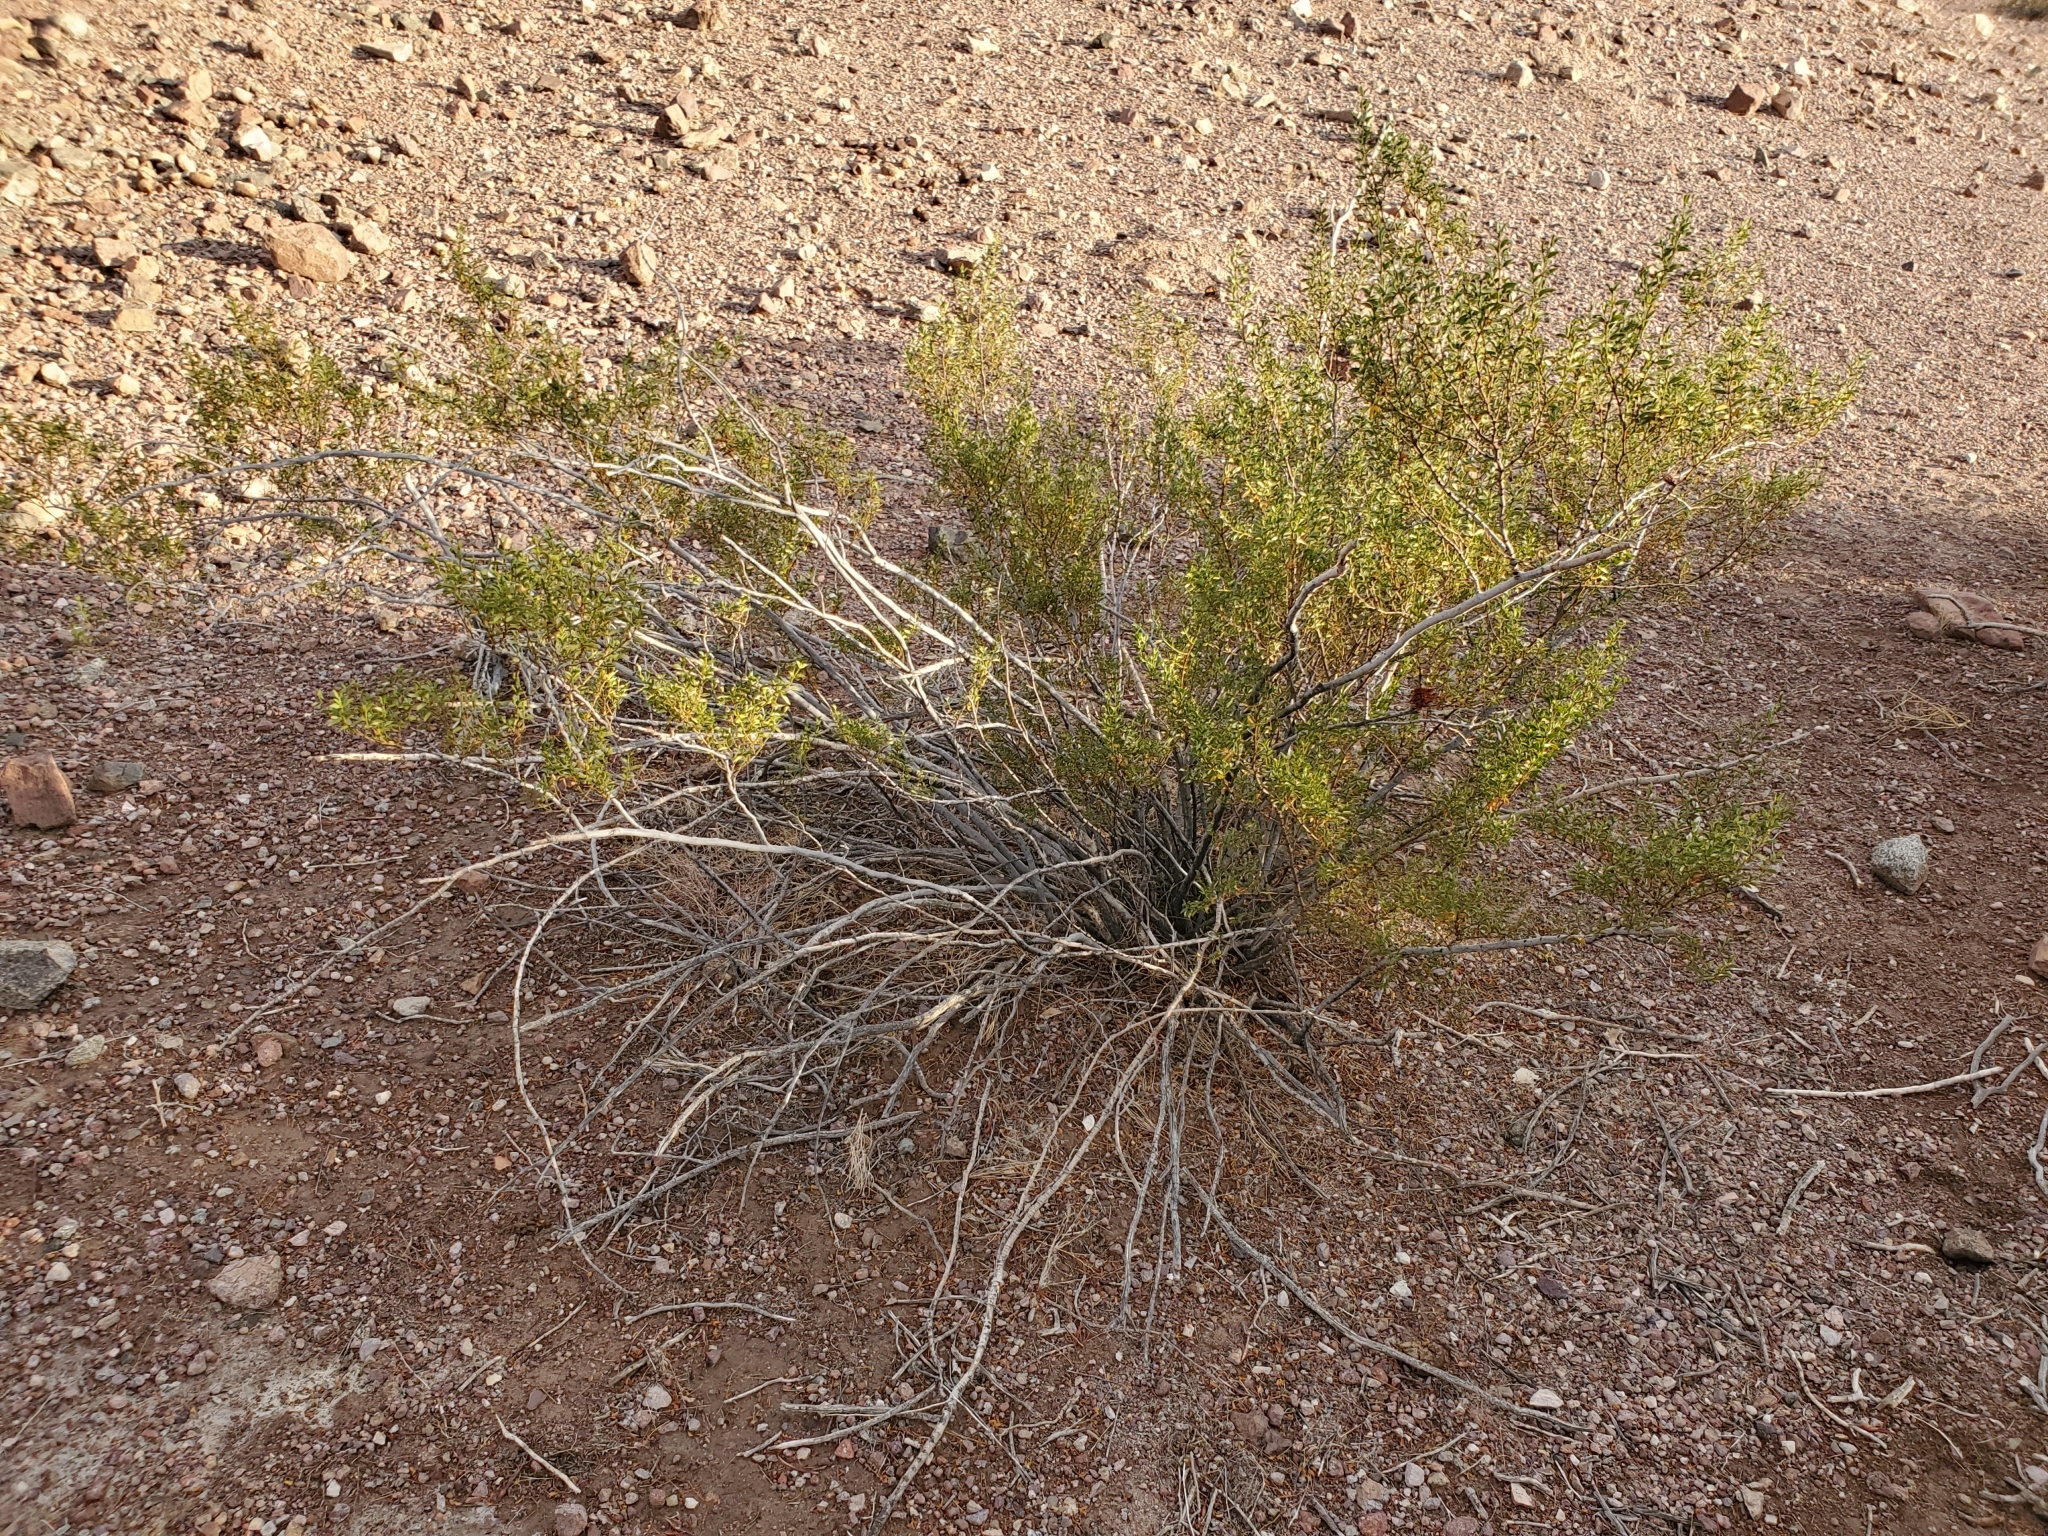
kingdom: Animalia
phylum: Arthropoda
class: Insecta
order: Diptera
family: Cecidomyiidae
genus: Asphondylia
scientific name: Asphondylia auripila
